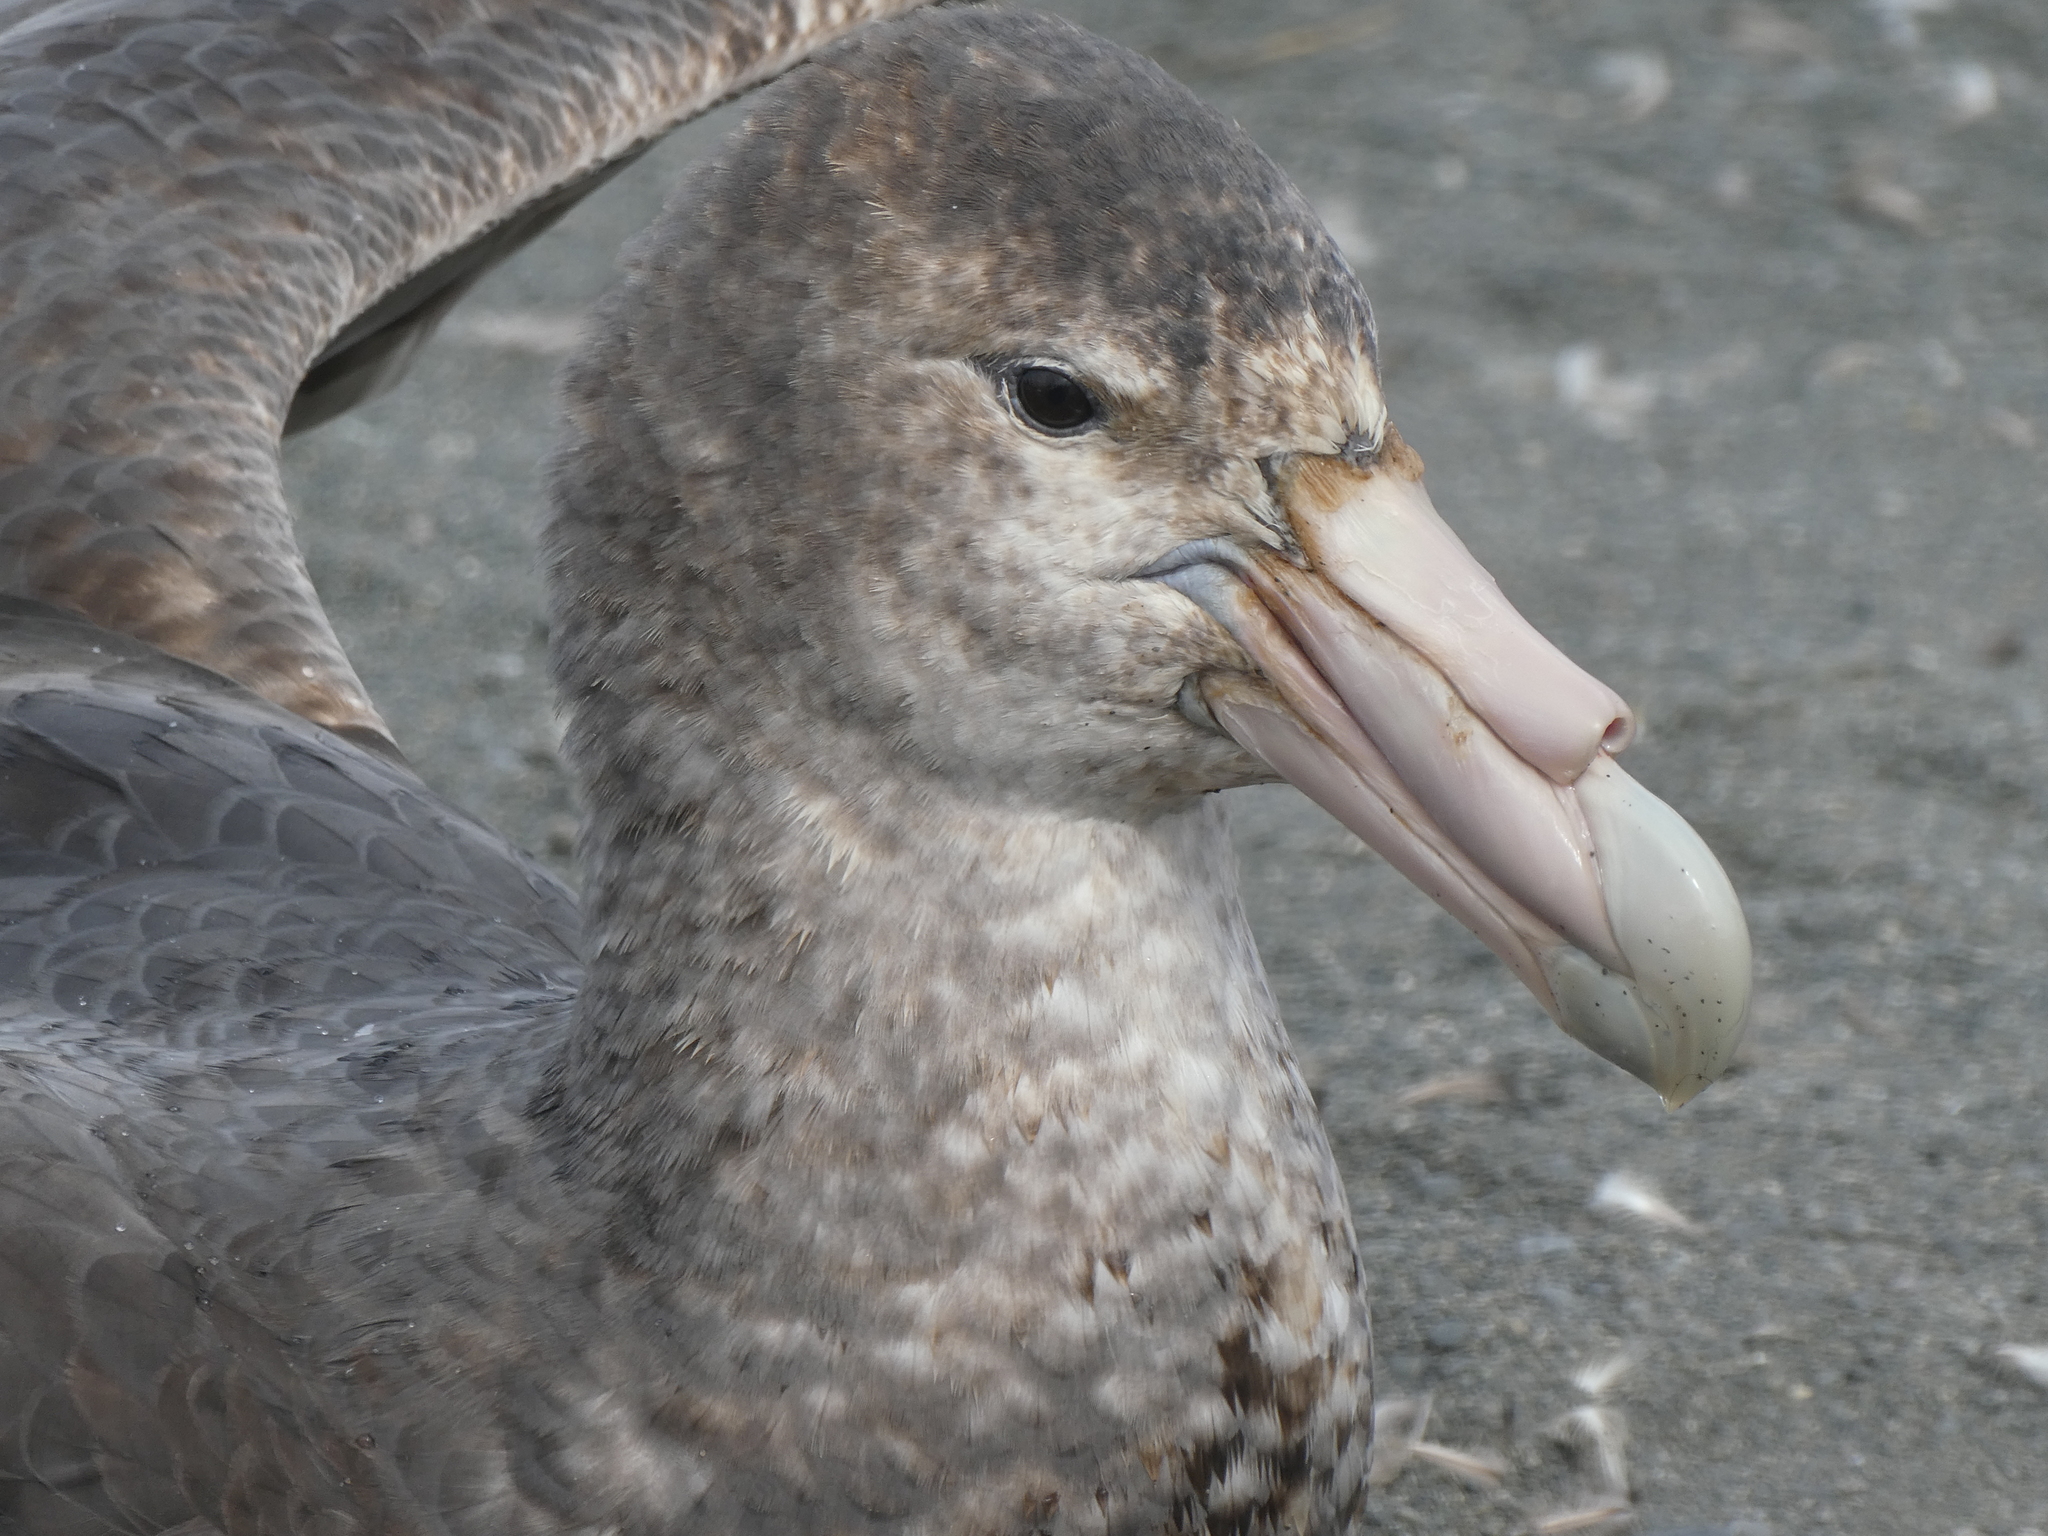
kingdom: Animalia
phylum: Chordata
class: Aves
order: Procellariiformes
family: Procellariidae
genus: Macronectes
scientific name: Macronectes giganteus
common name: Southern giant petrel
